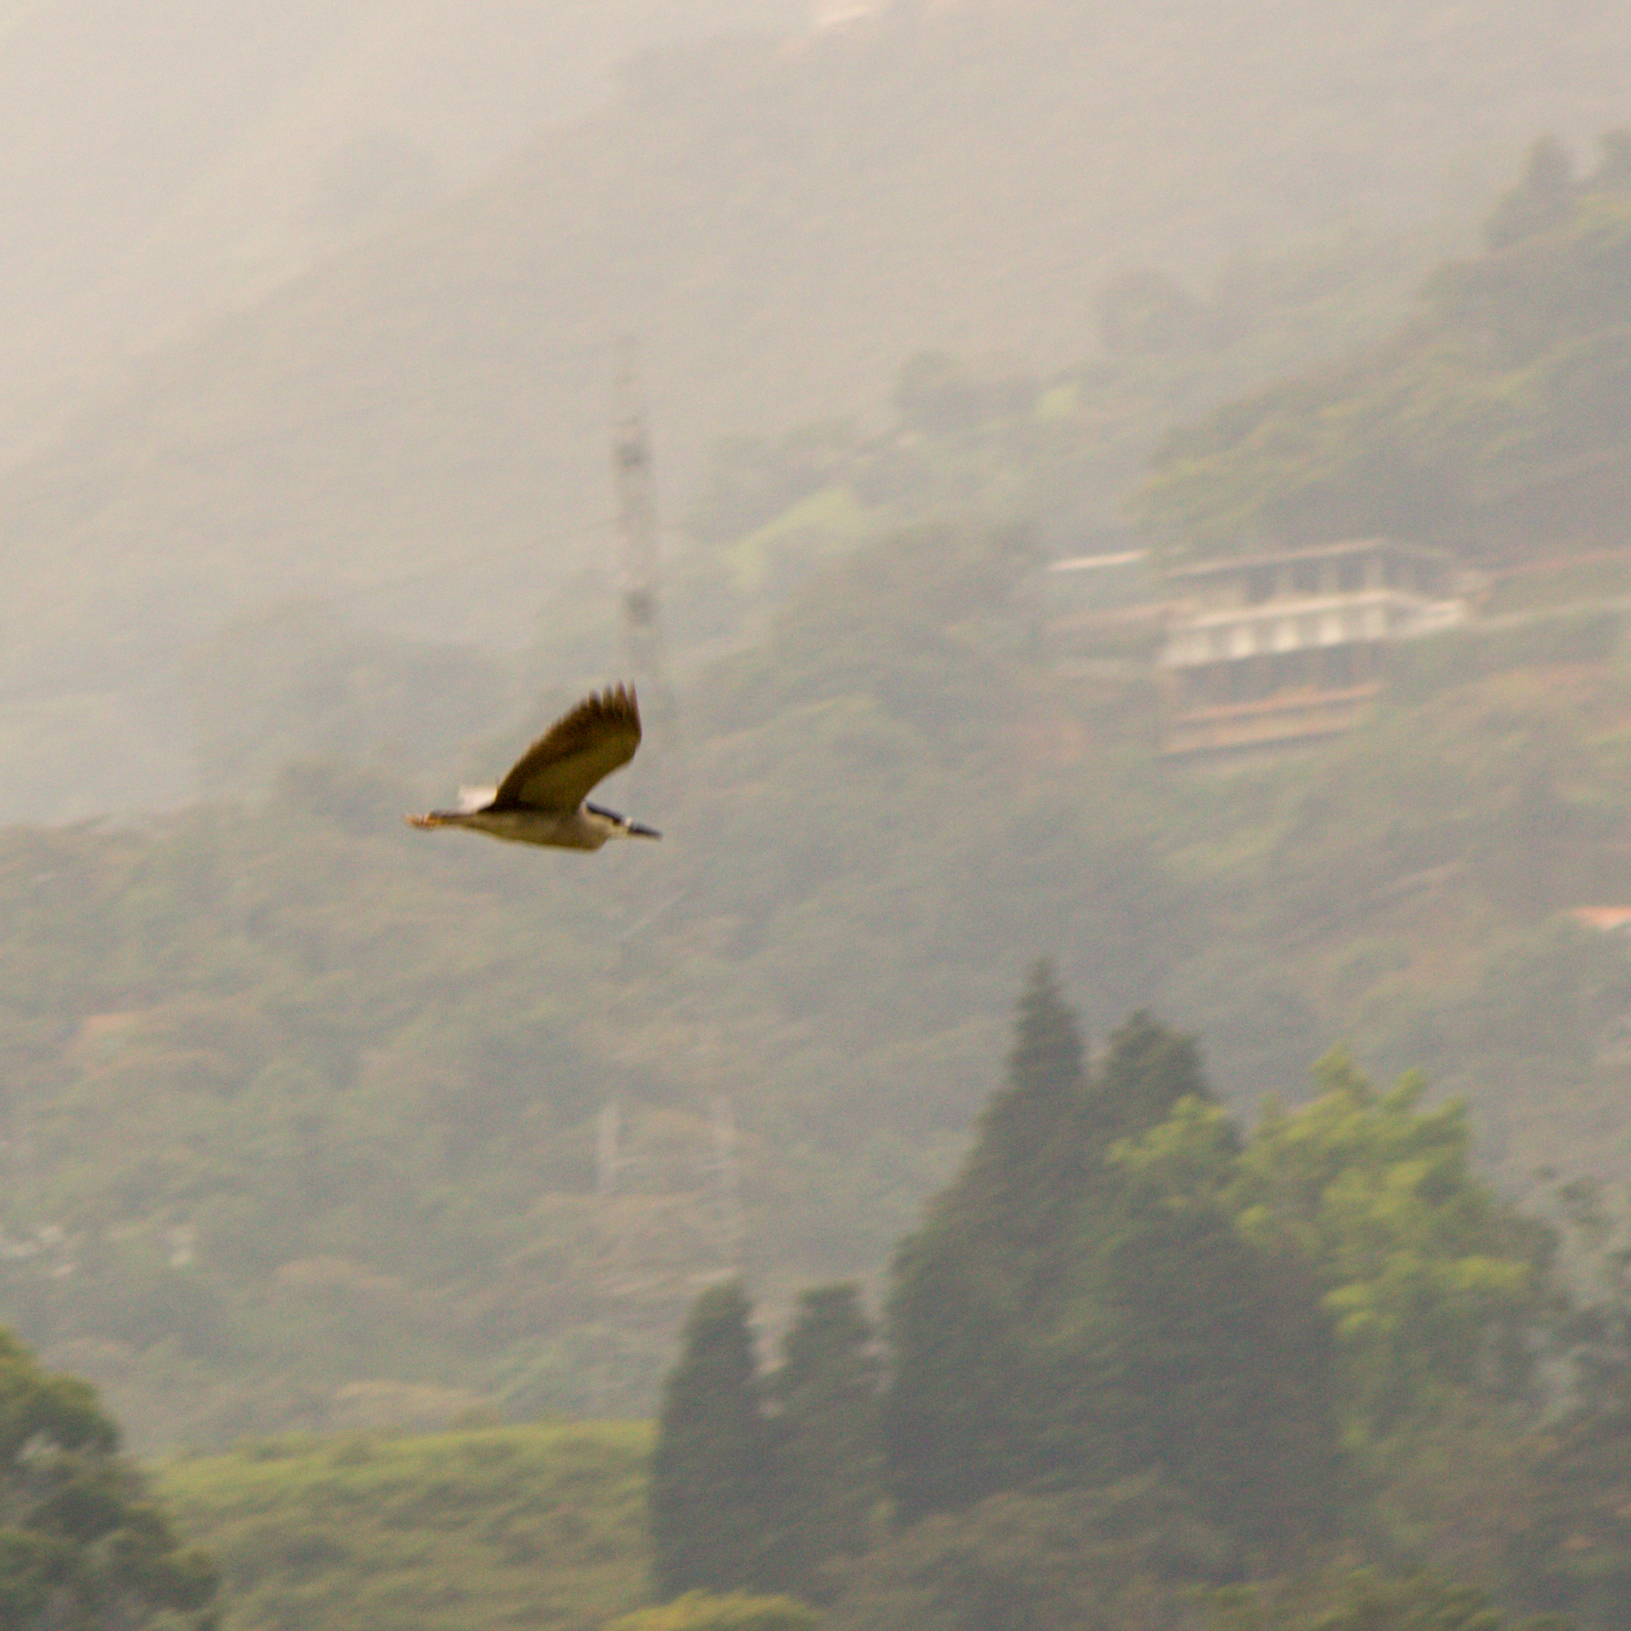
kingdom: Animalia
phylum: Chordata
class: Aves
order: Pelecaniformes
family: Ardeidae
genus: Nycticorax
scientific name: Nycticorax nycticorax
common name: Black-crowned night heron
